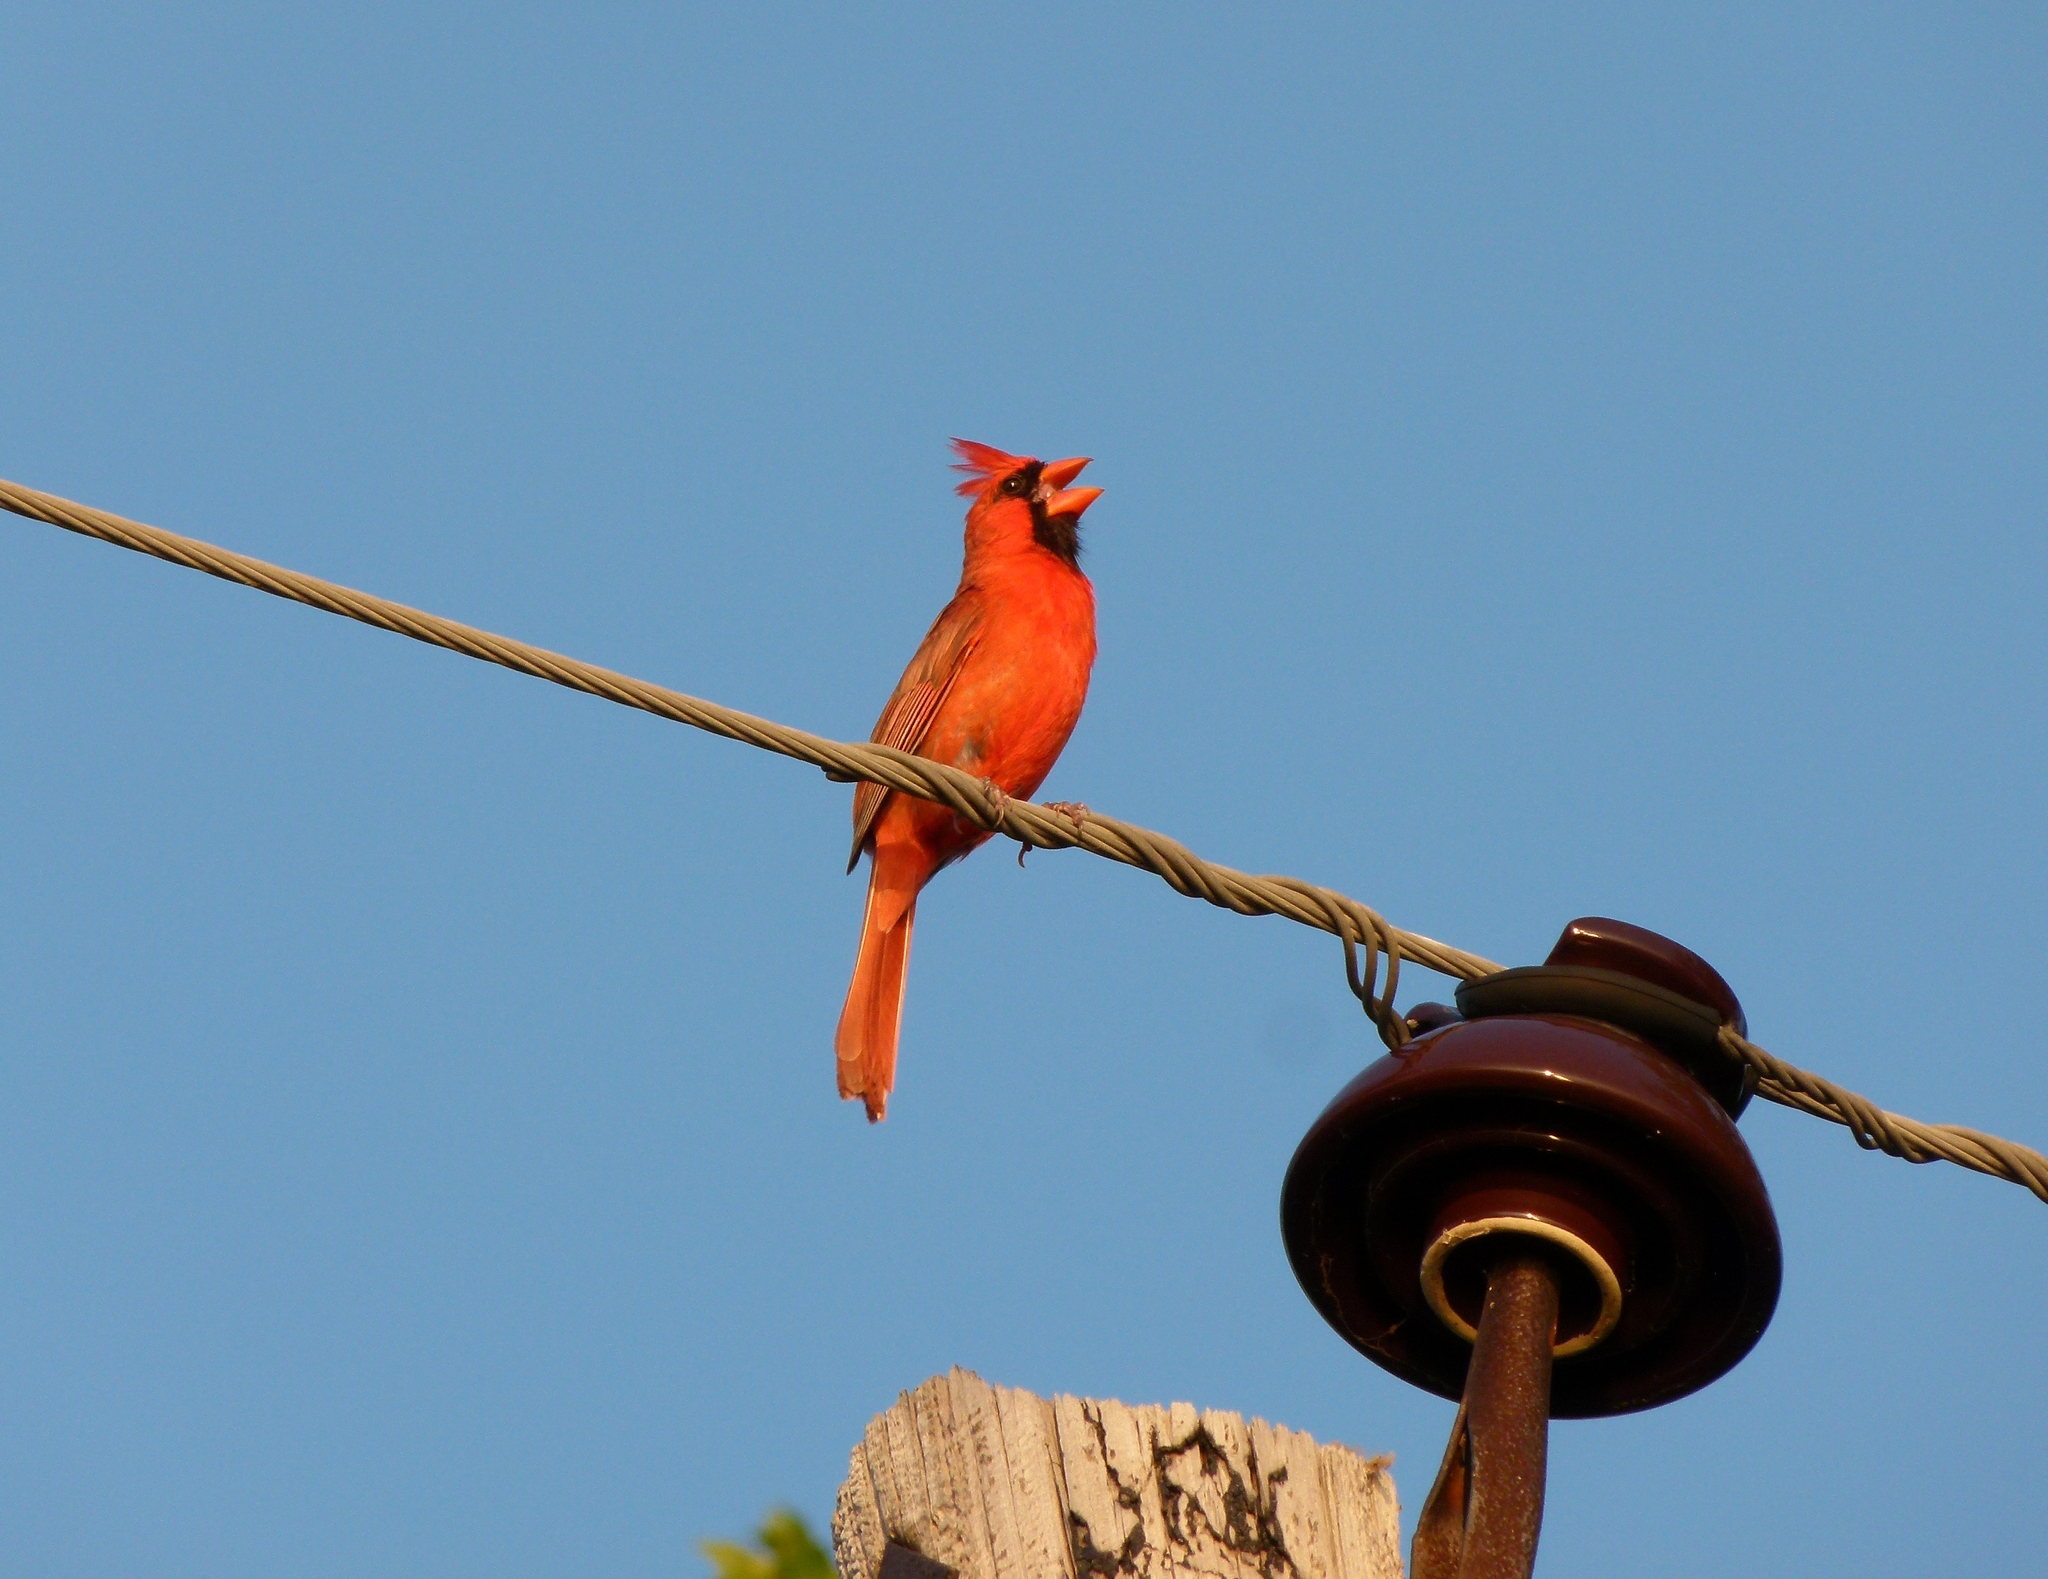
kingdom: Animalia
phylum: Chordata
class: Aves
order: Passeriformes
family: Cardinalidae
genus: Cardinalis
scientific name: Cardinalis cardinalis
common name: Northern cardinal
